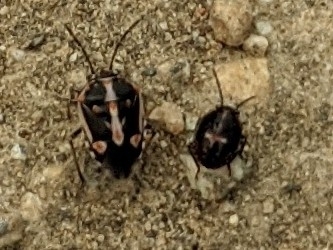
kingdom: Animalia
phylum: Arthropoda
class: Insecta
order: Hemiptera
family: Pentatomidae
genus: Bagrada
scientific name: Bagrada hilaris
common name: Bagrada bug
